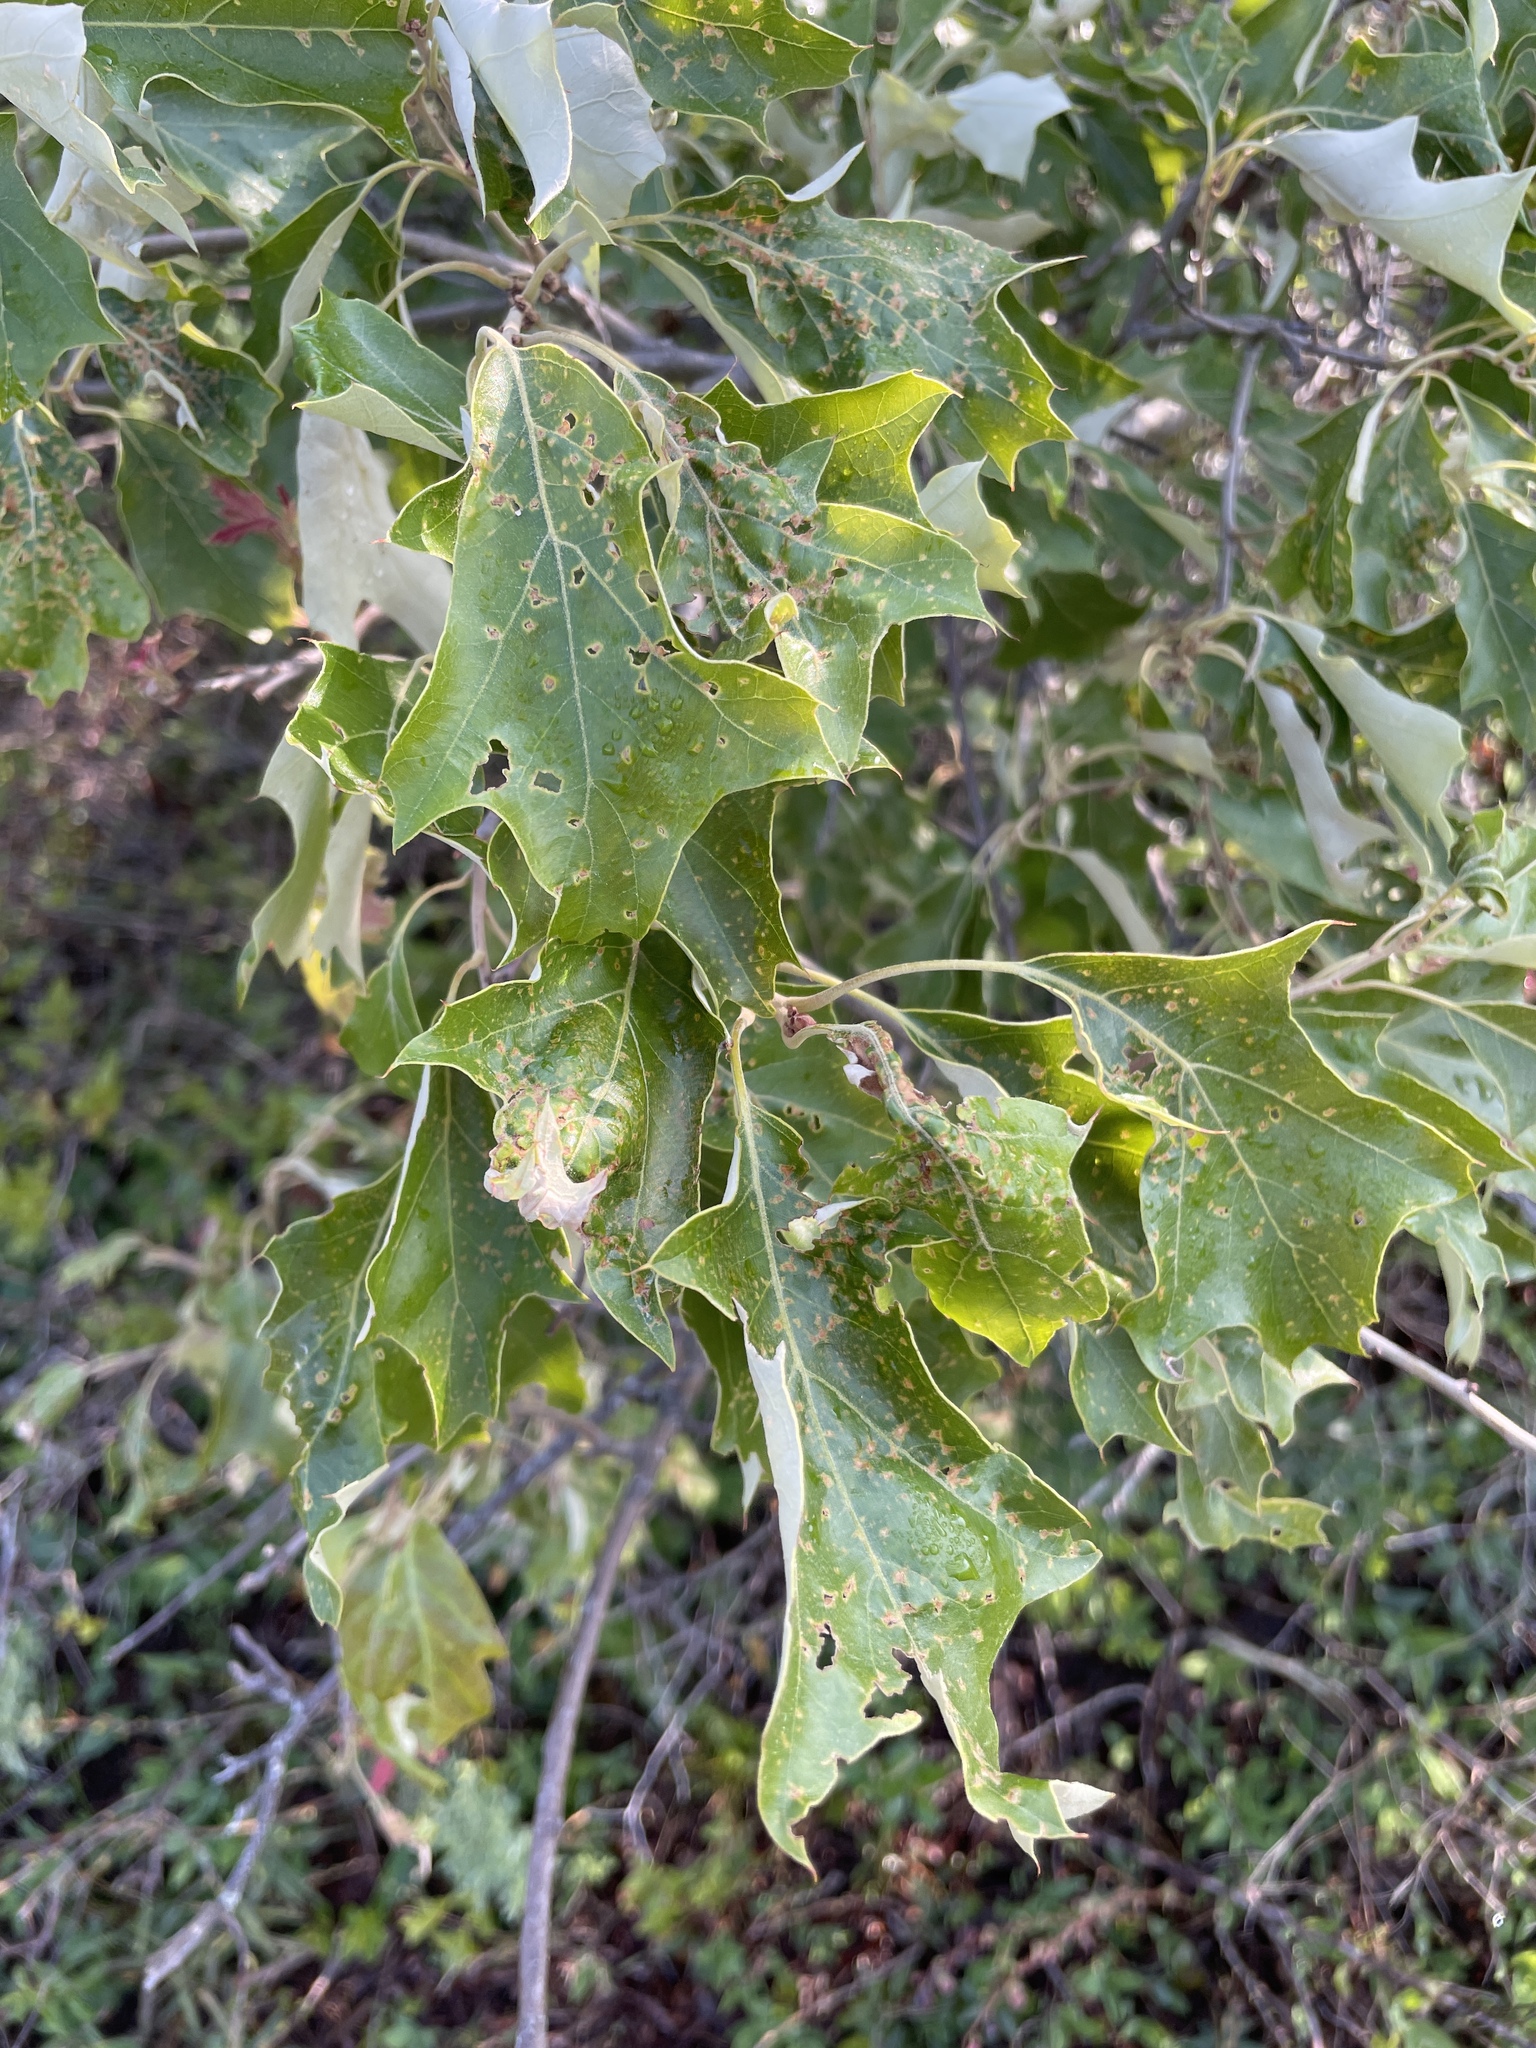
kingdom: Plantae
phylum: Tracheophyta
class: Magnoliopsida
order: Fagales
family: Fagaceae
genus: Quercus
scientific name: Quercus ilicifolia
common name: Bear oak
